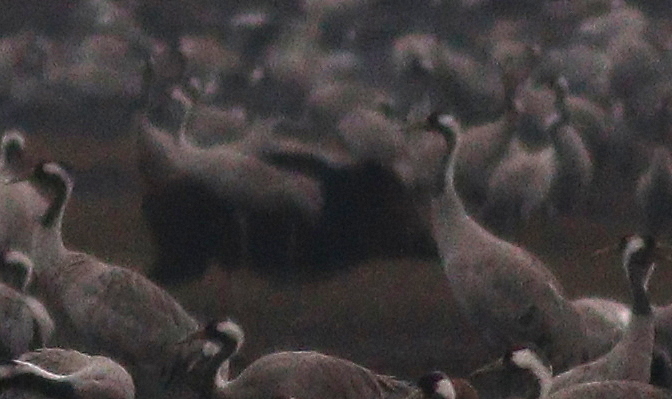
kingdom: Animalia
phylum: Chordata
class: Mammalia
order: Artiodactyla
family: Suidae
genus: Sus
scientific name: Sus scrofa
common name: Wild boar
